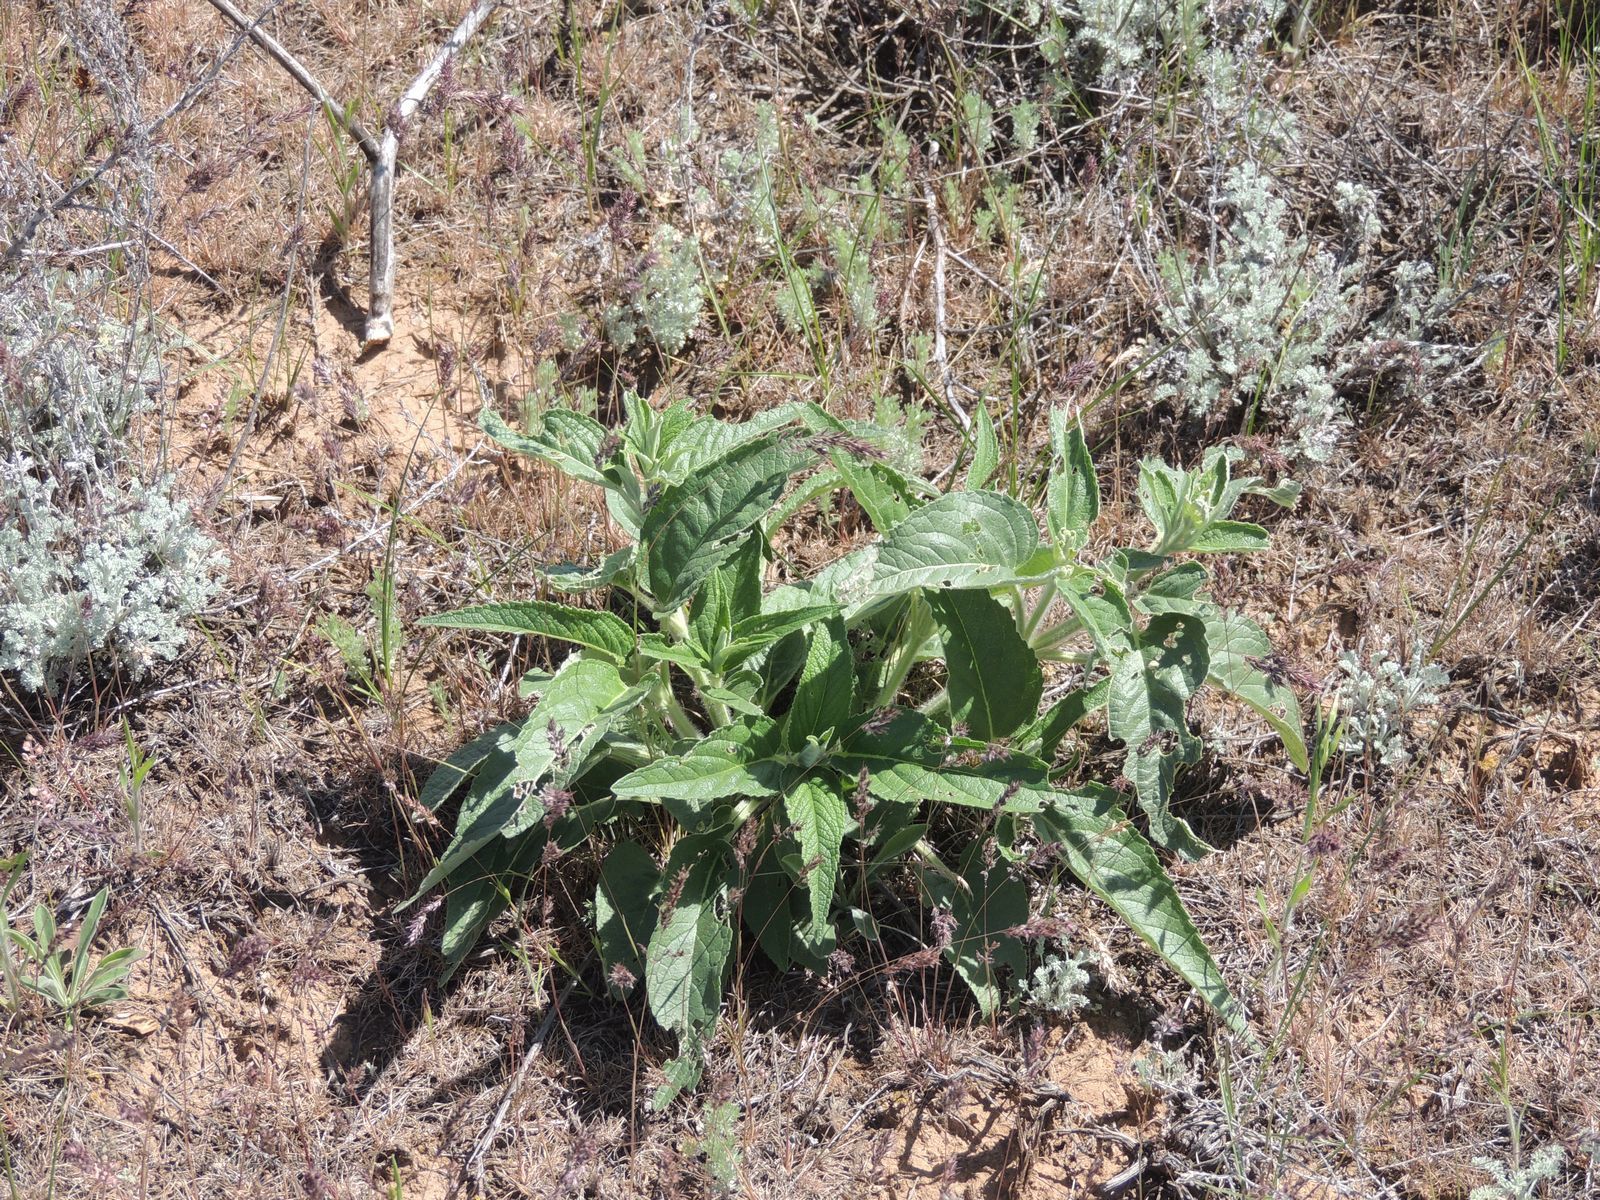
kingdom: Plantae
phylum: Tracheophyta
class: Magnoliopsida
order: Lamiales
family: Lamiaceae
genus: Phlomis
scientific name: Phlomis herba-venti
